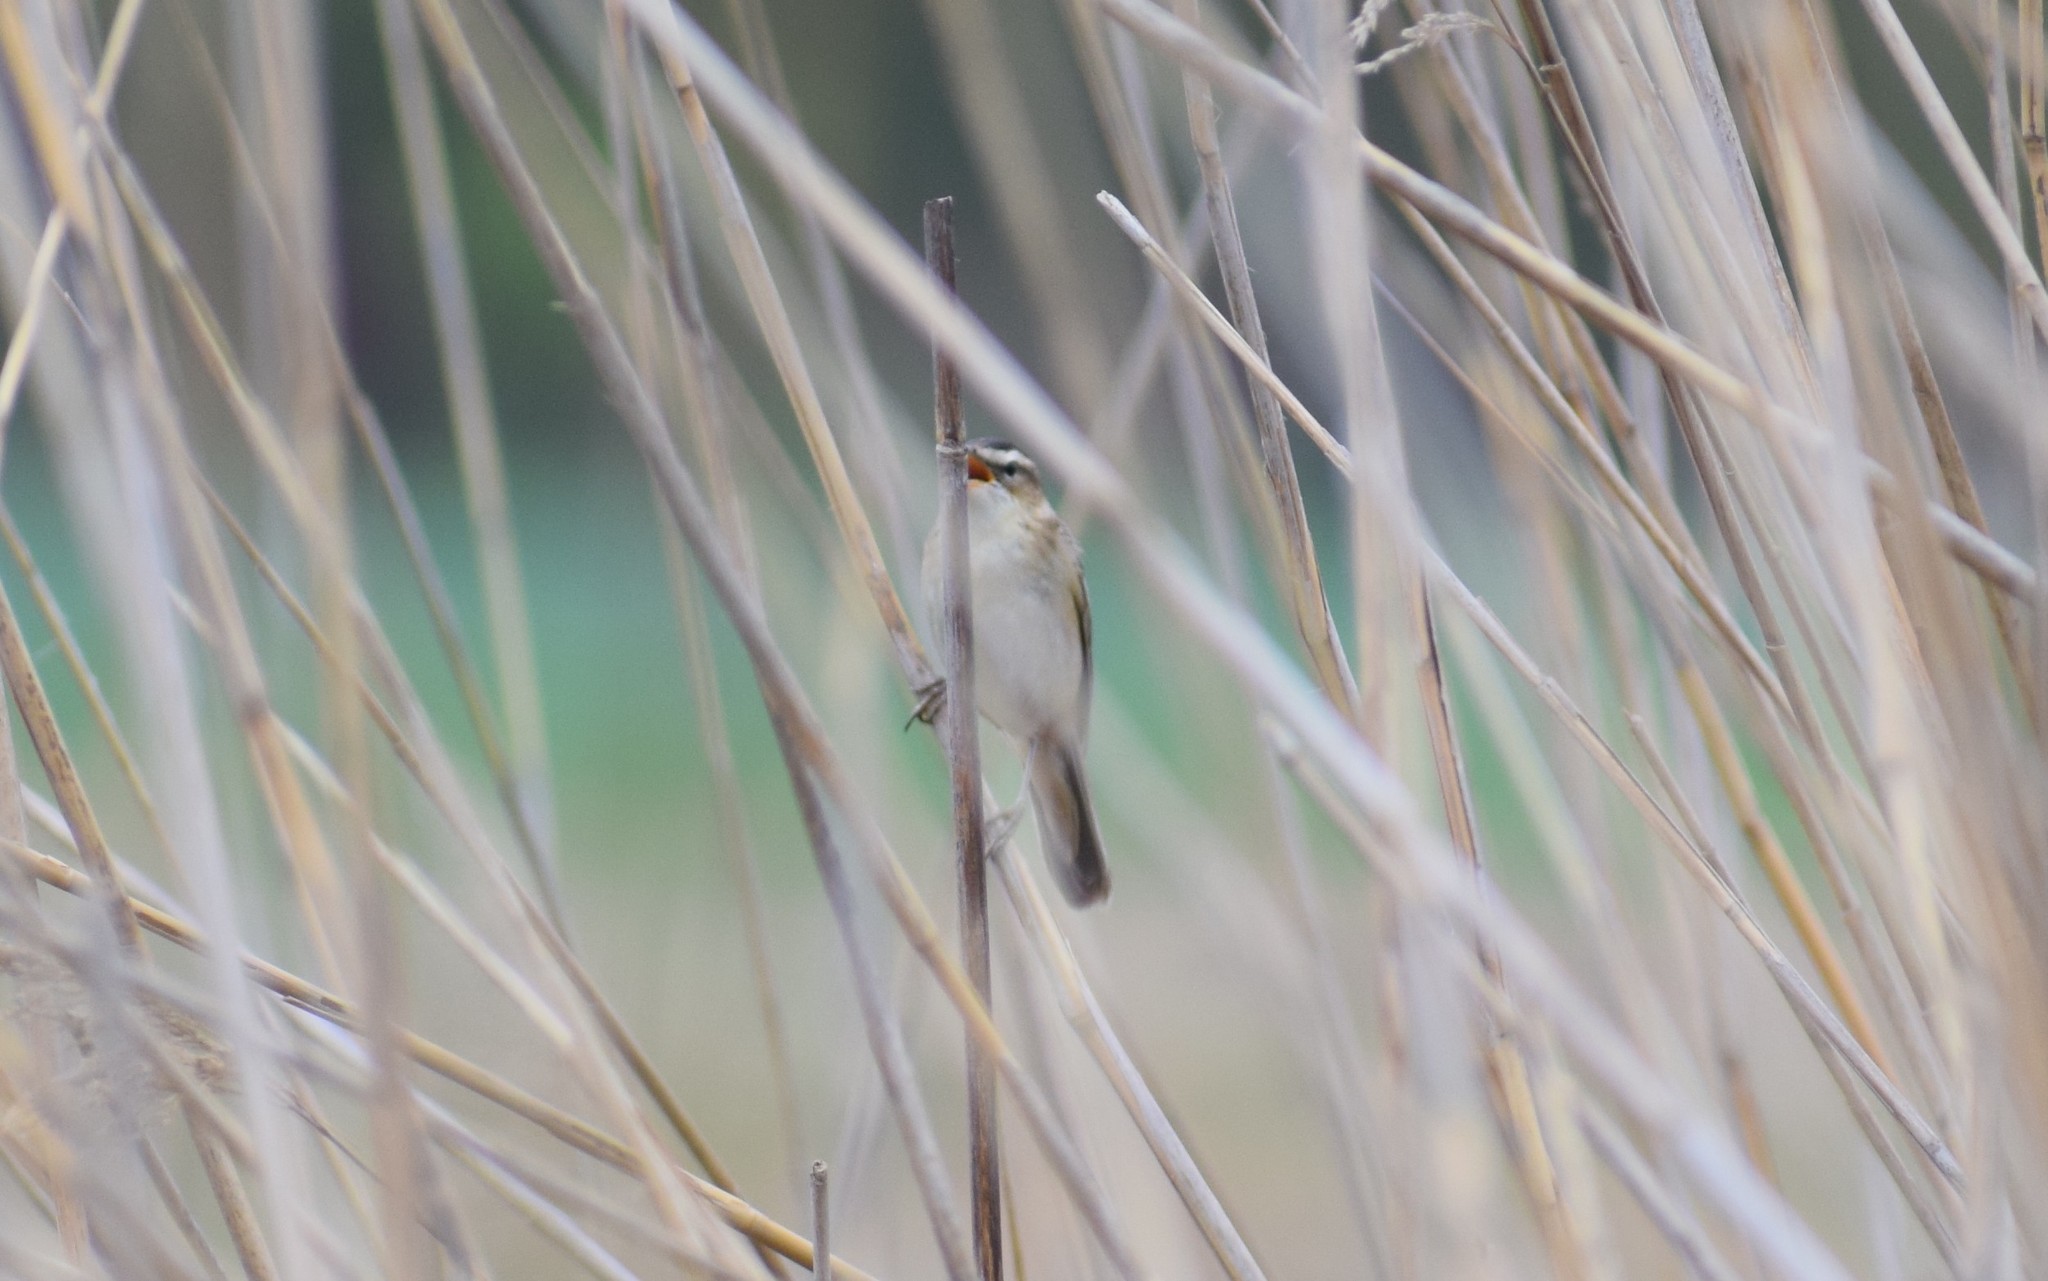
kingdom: Animalia
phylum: Chordata
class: Aves
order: Passeriformes
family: Acrocephalidae
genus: Acrocephalus
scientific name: Acrocephalus schoenobaenus
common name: Sedge warbler
